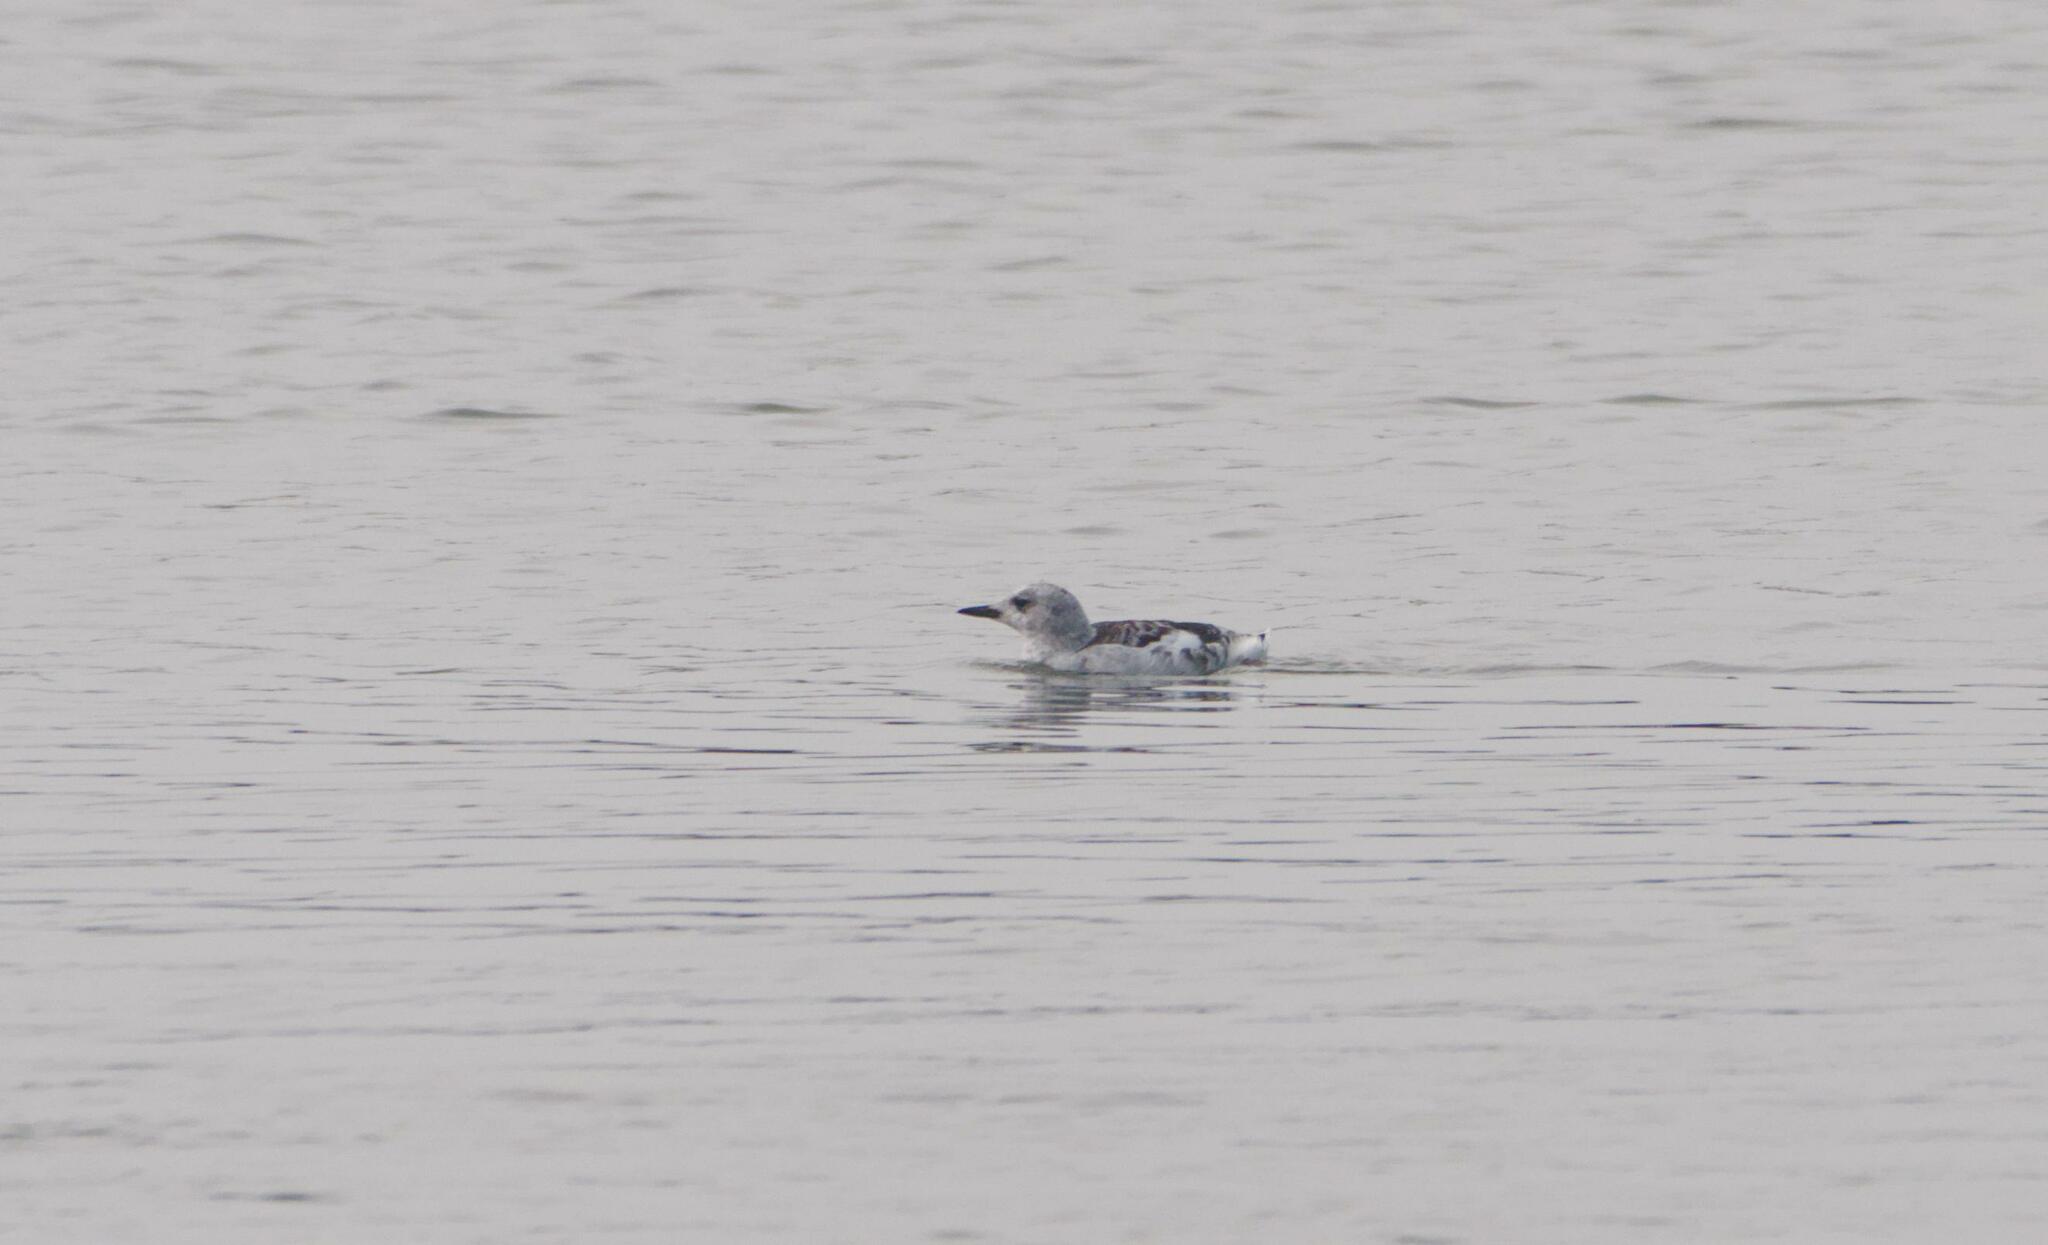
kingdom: Animalia
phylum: Chordata
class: Aves
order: Charadriiformes
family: Alcidae
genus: Cepphus
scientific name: Cepphus grylle
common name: Black guillemot
